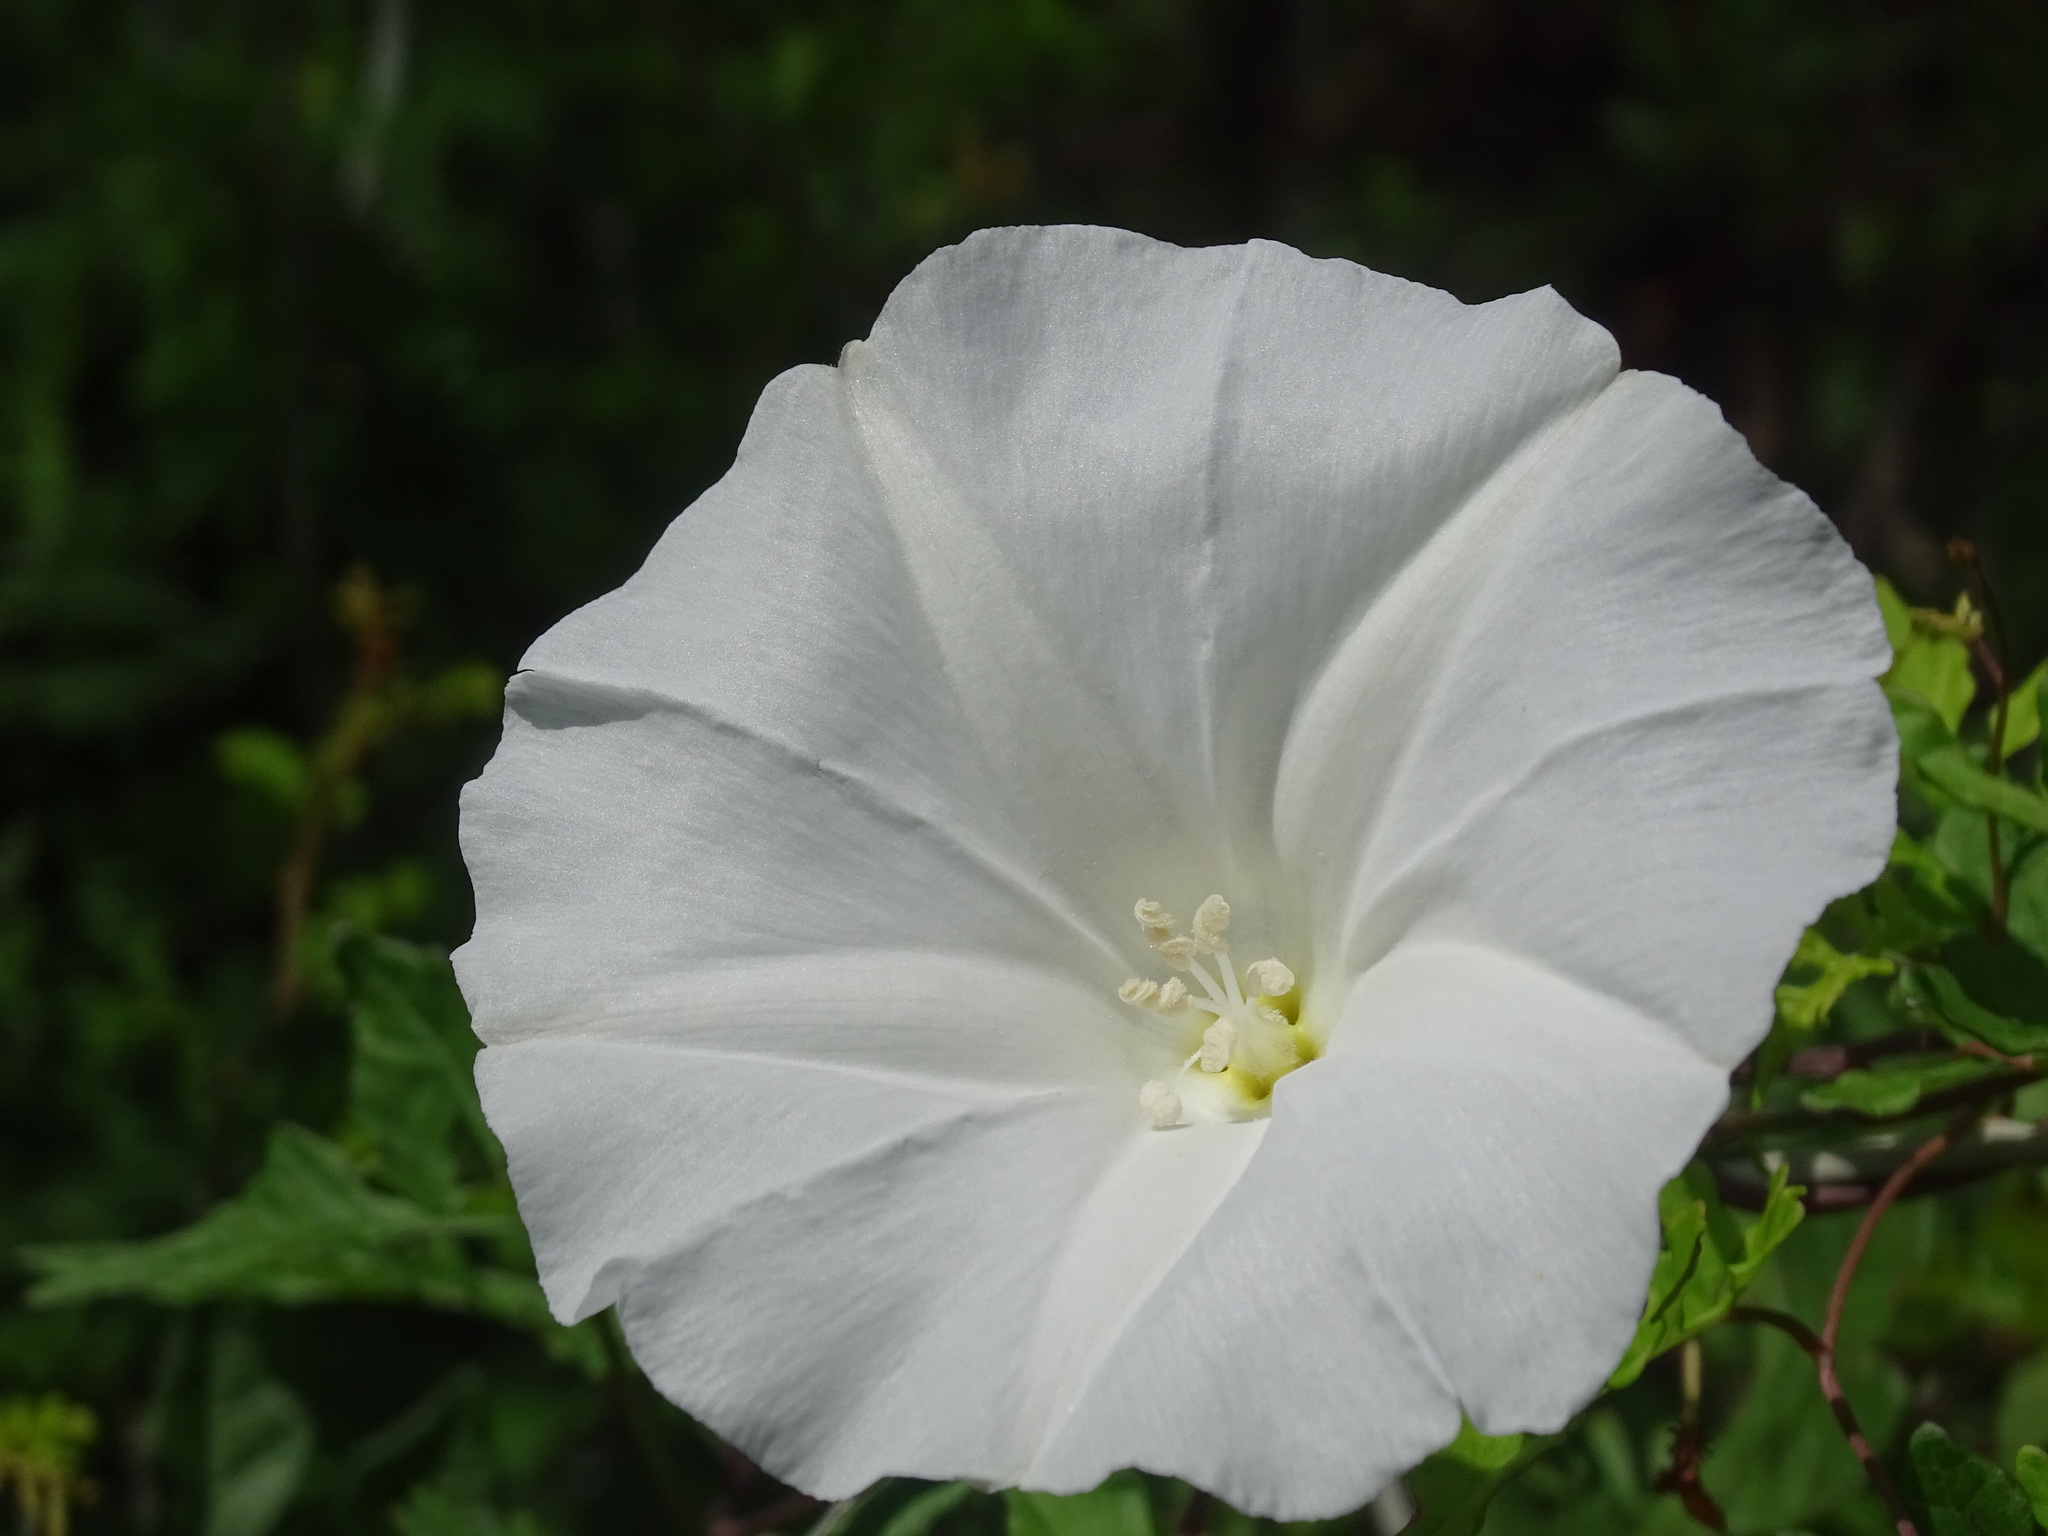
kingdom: Plantae
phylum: Tracheophyta
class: Magnoliopsida
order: Solanales
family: Convolvulaceae
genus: Operculina
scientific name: Operculina pinnatifida
